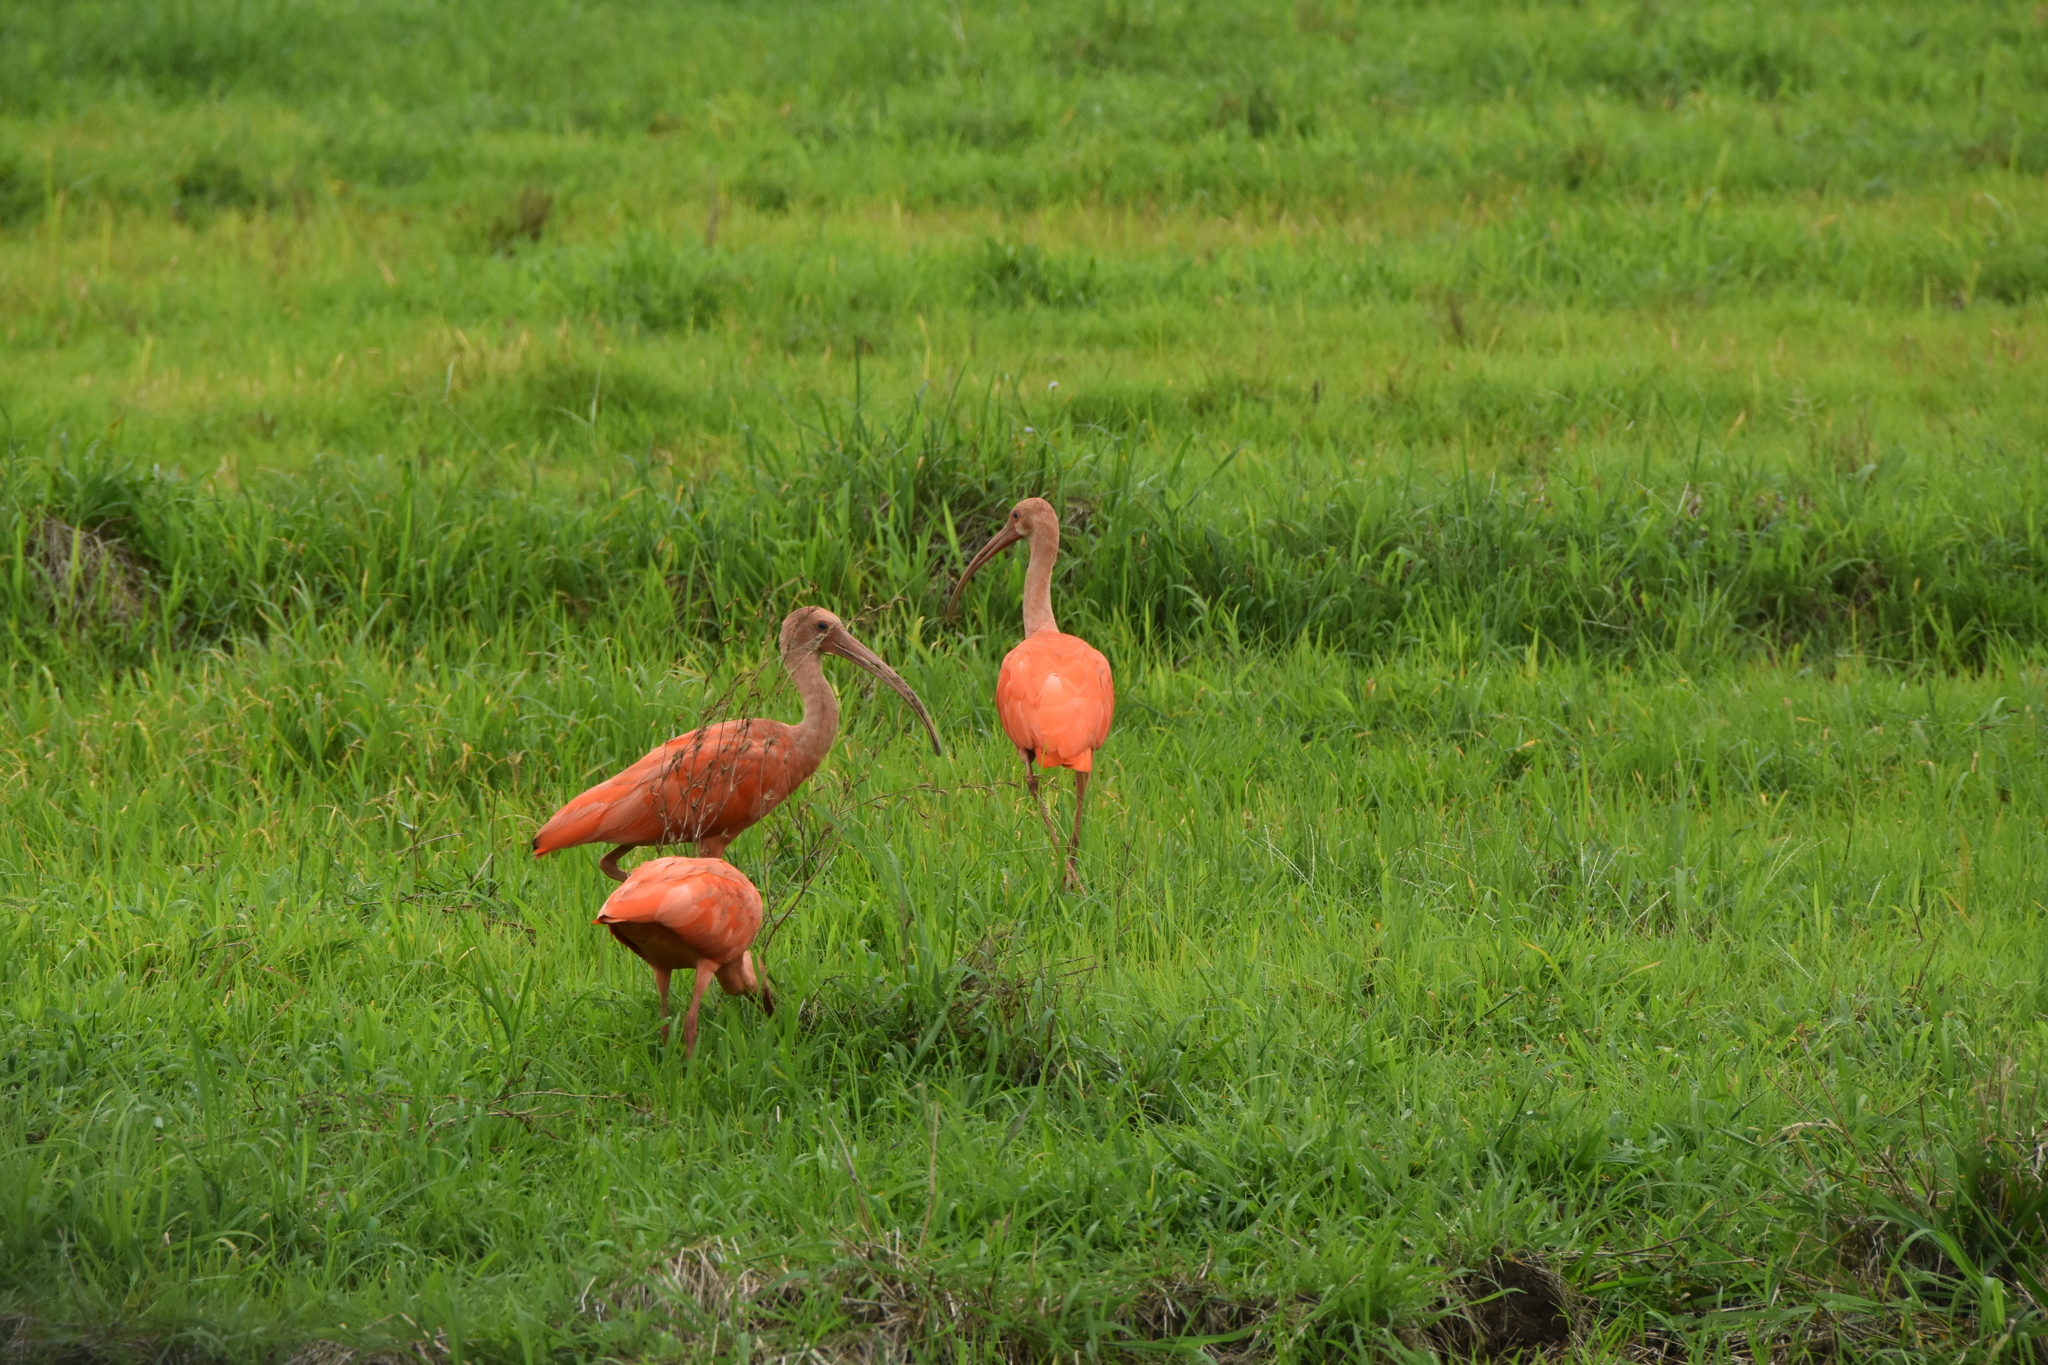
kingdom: Animalia
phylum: Chordata
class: Aves
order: Pelecaniformes
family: Threskiornithidae
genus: Eudocimus
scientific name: Eudocimus ruber
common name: Scarlet ibis
